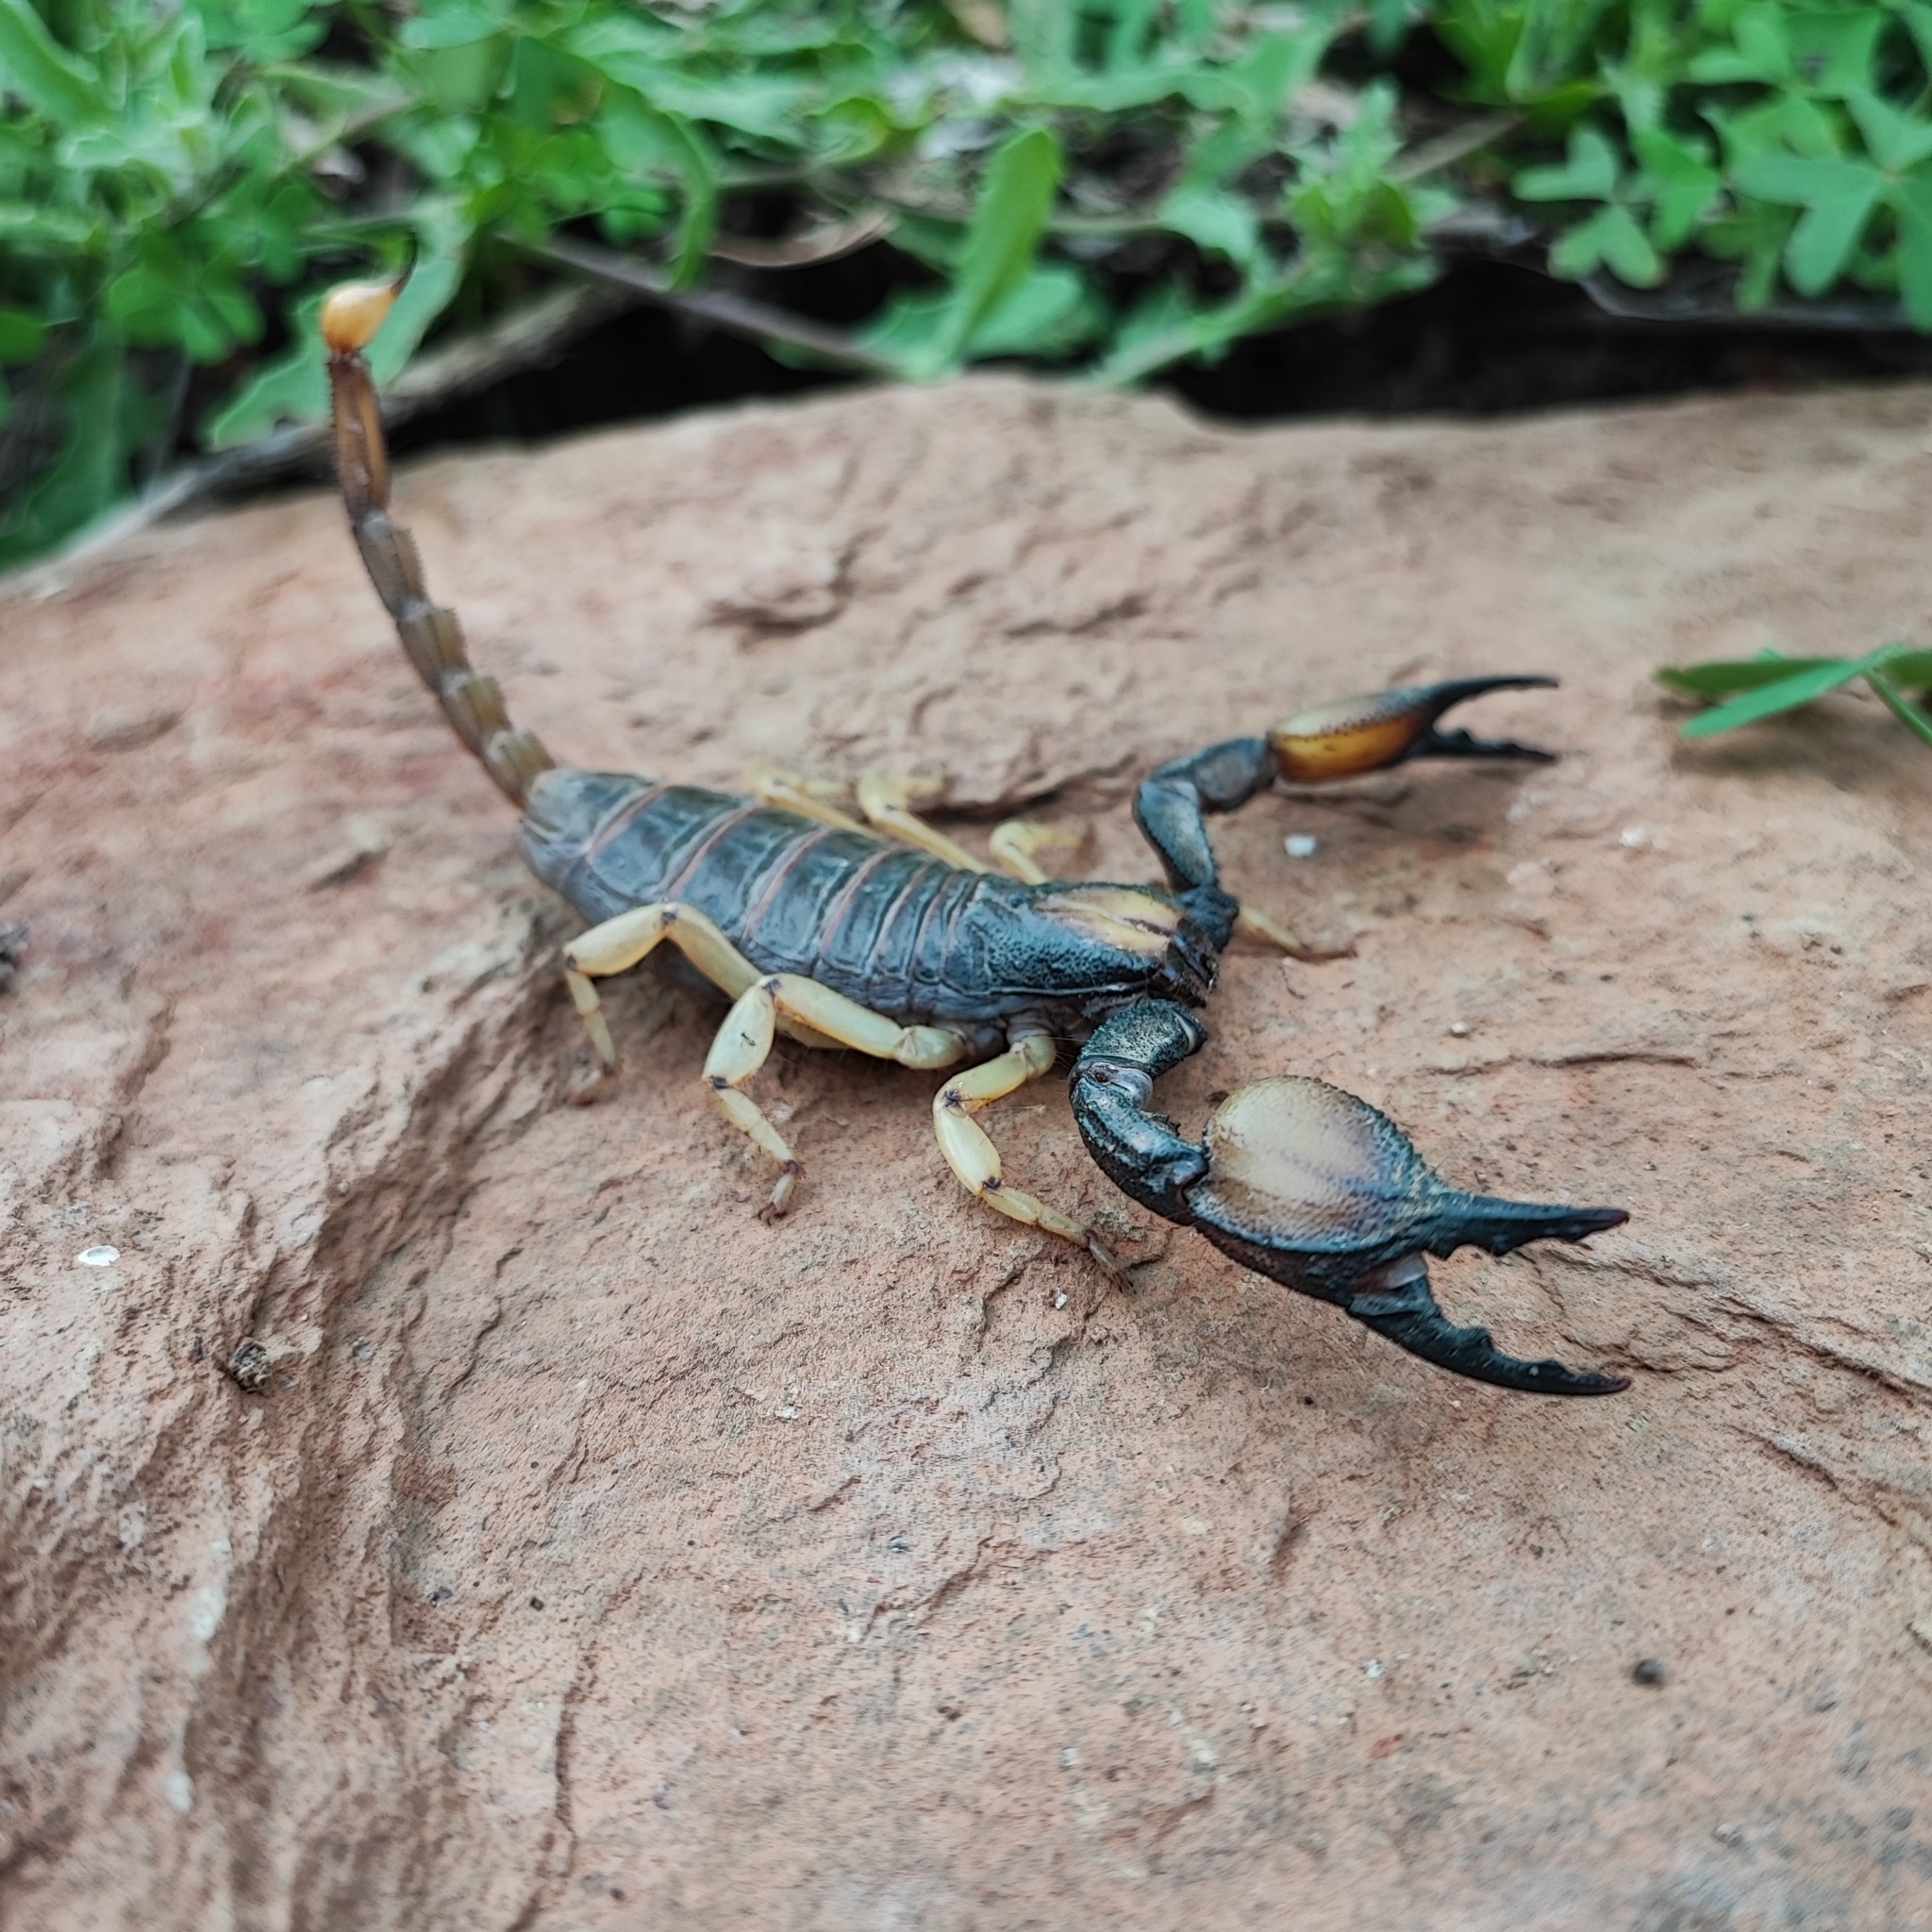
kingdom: Animalia
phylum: Arthropoda
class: Arachnida
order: Scorpiones
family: Scorpionidae
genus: Opistophthalmus
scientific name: Opistophthalmus karrooensis
